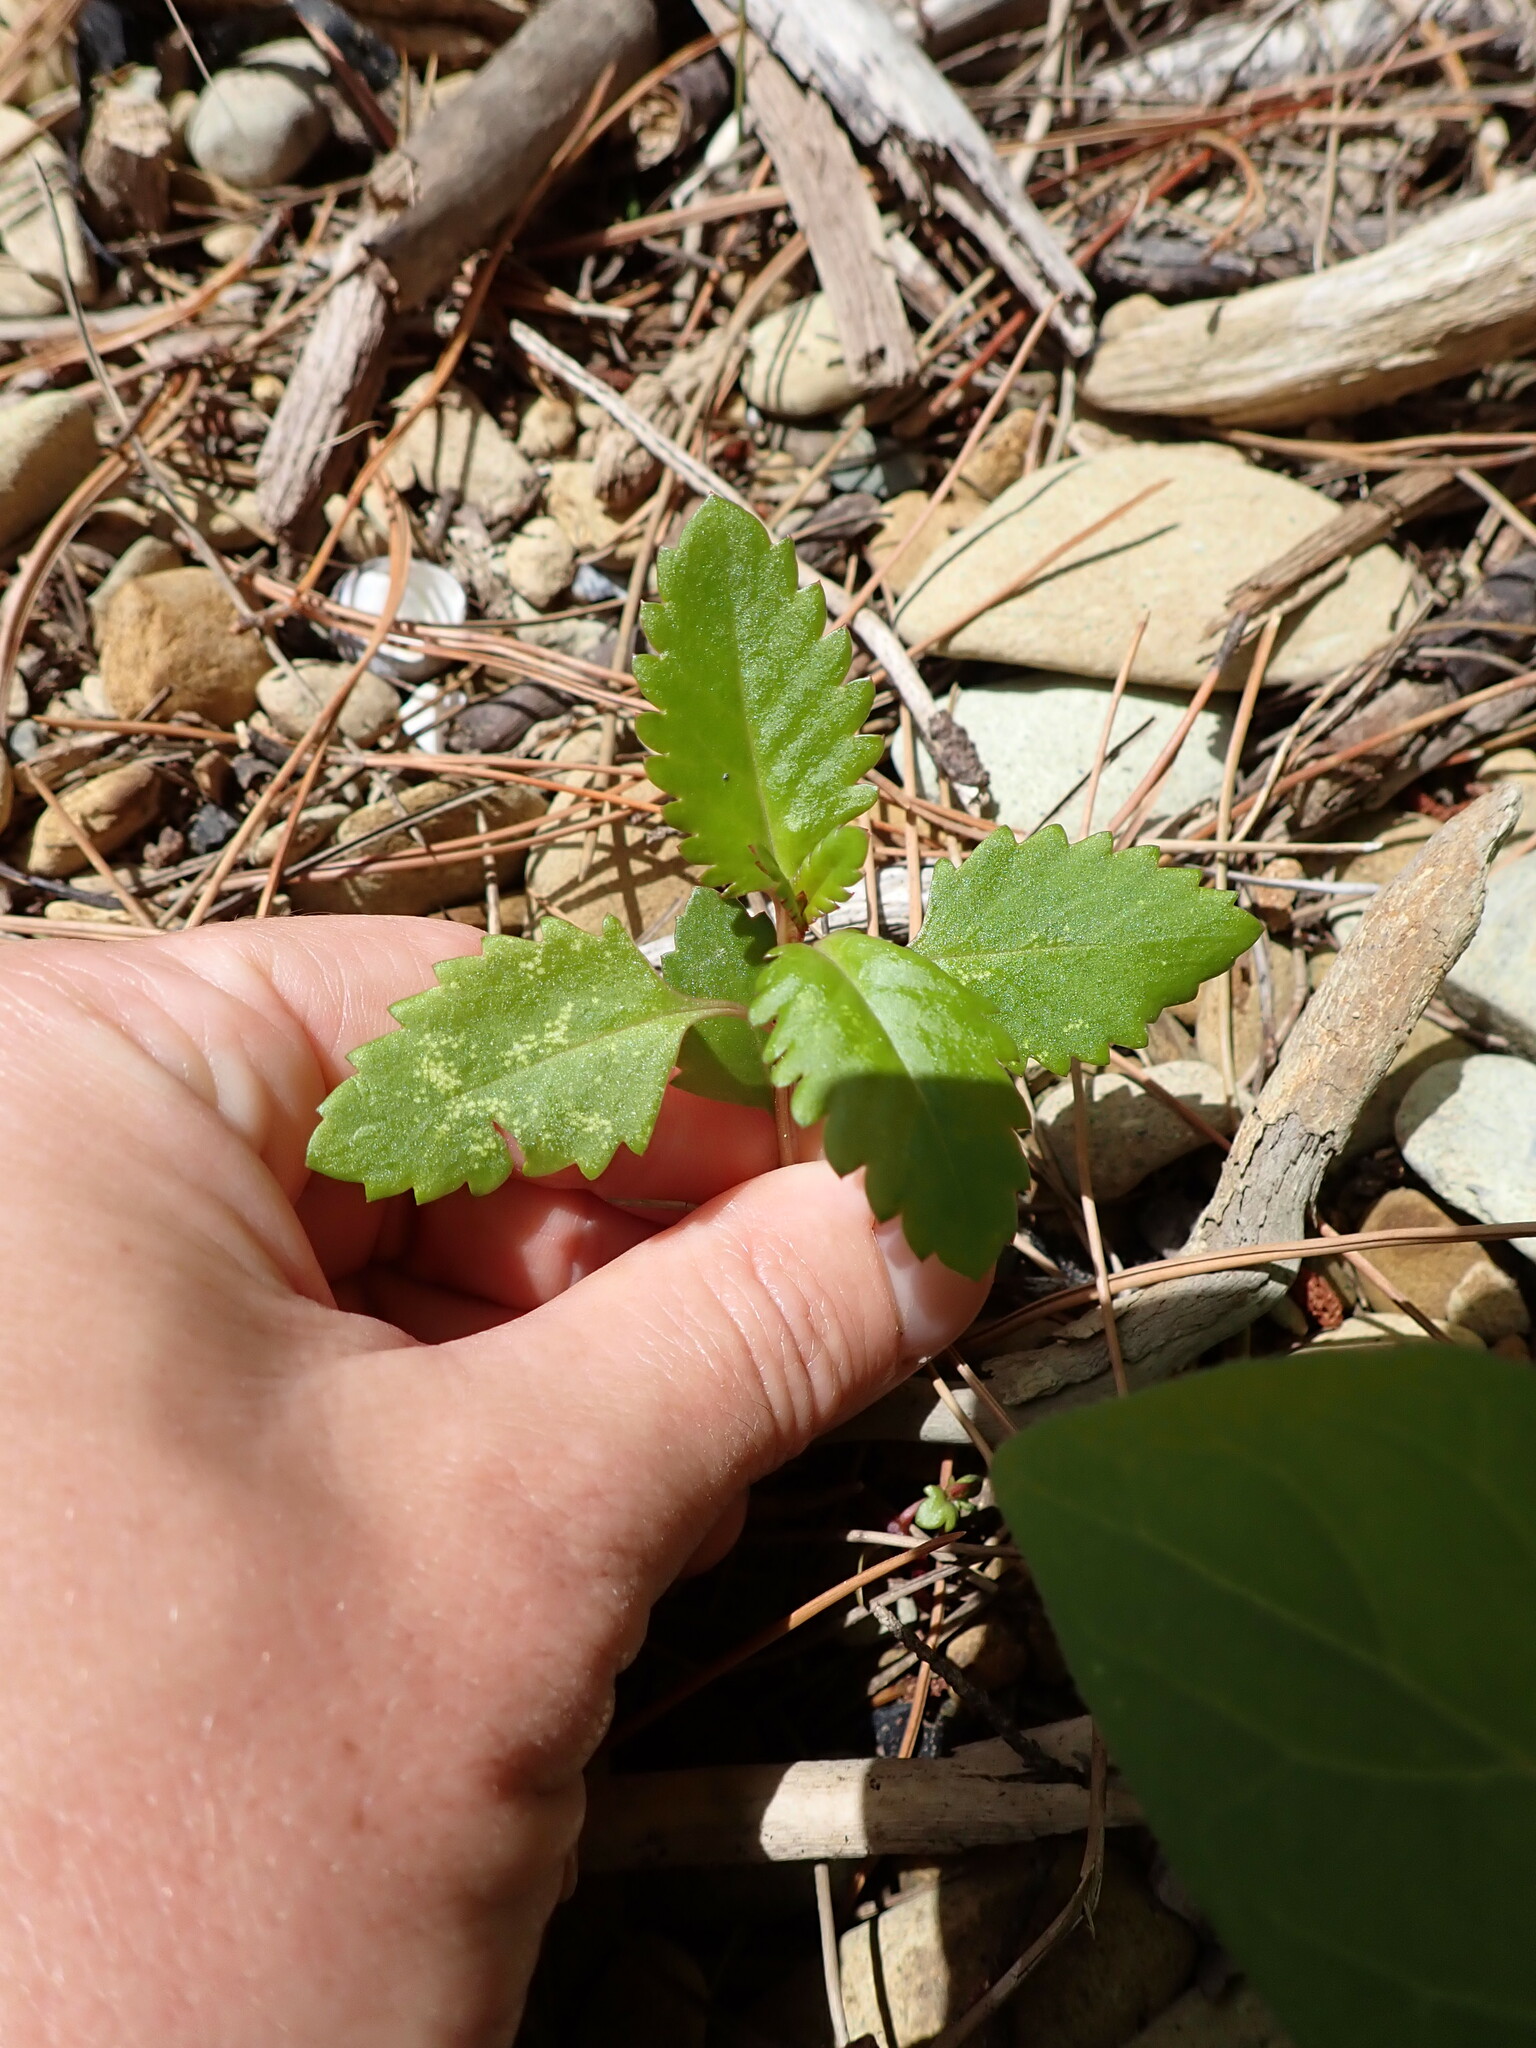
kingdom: Plantae
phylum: Tracheophyta
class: Magnoliopsida
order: Saxifragales
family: Haloragaceae
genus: Haloragis
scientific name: Haloragis erecta
